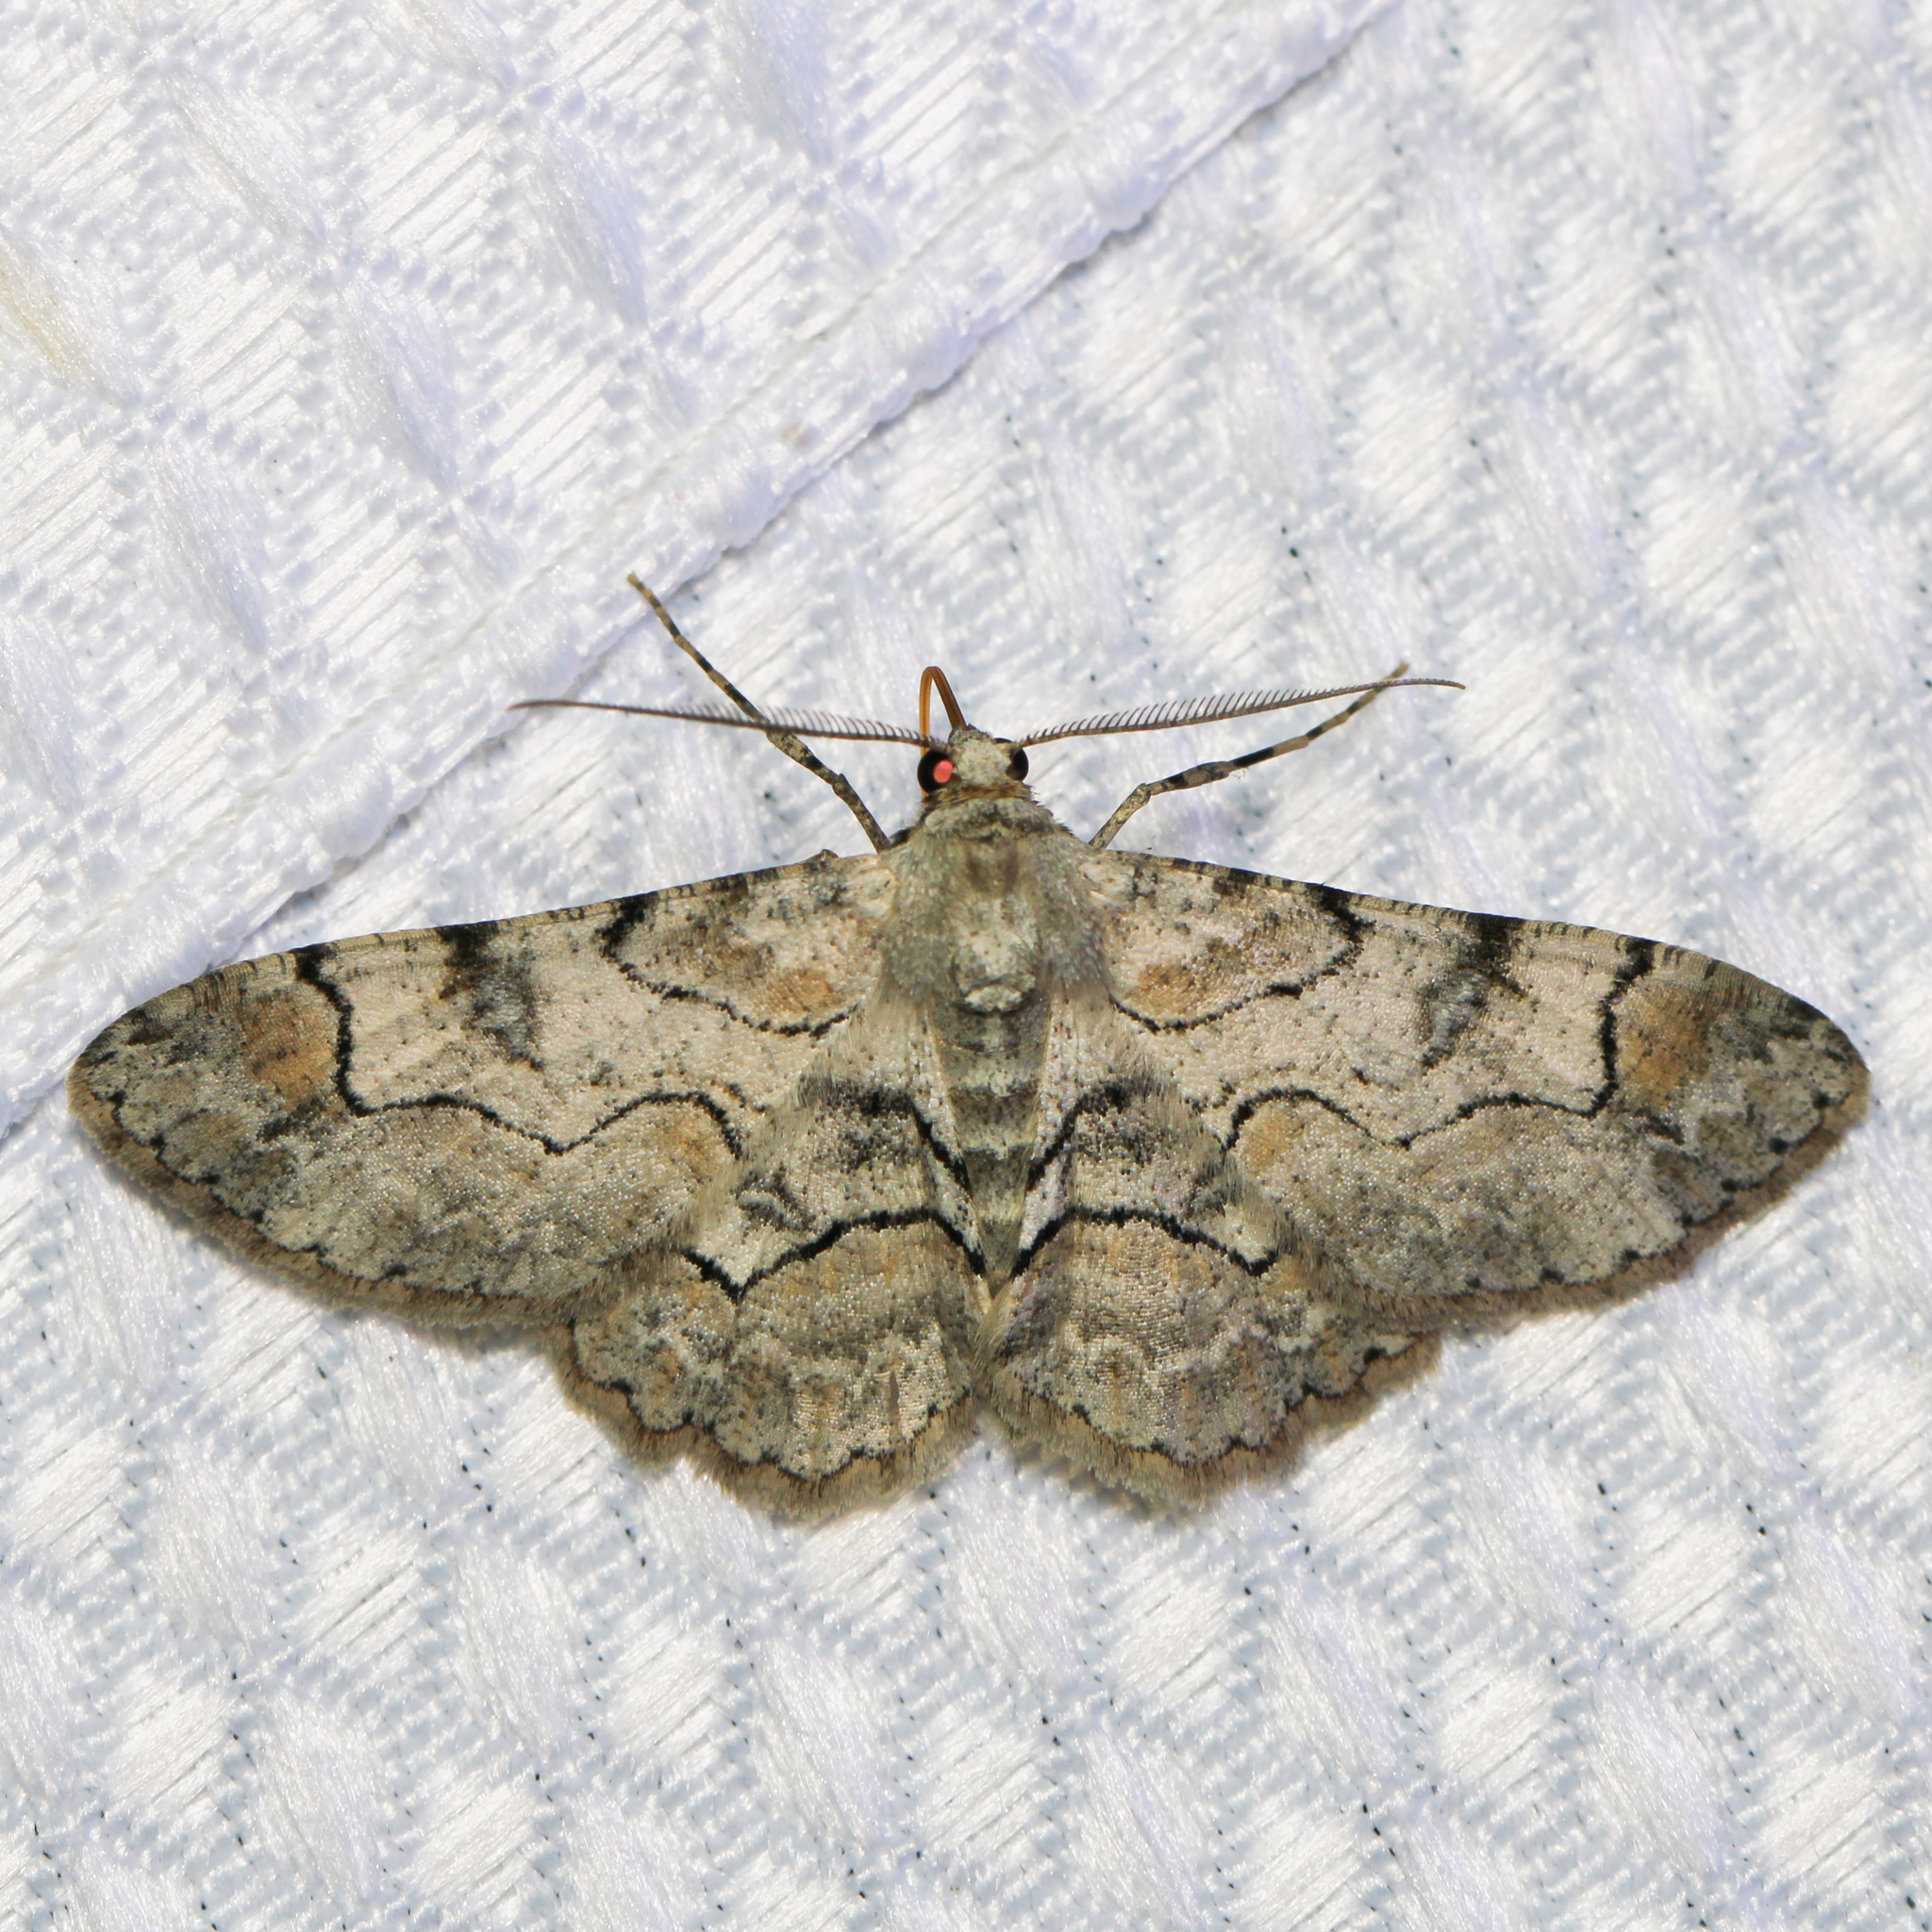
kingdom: Animalia
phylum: Arthropoda
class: Insecta
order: Lepidoptera
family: Geometridae
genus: Iridopsis
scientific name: Iridopsis larvaria
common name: Bent-line gray
